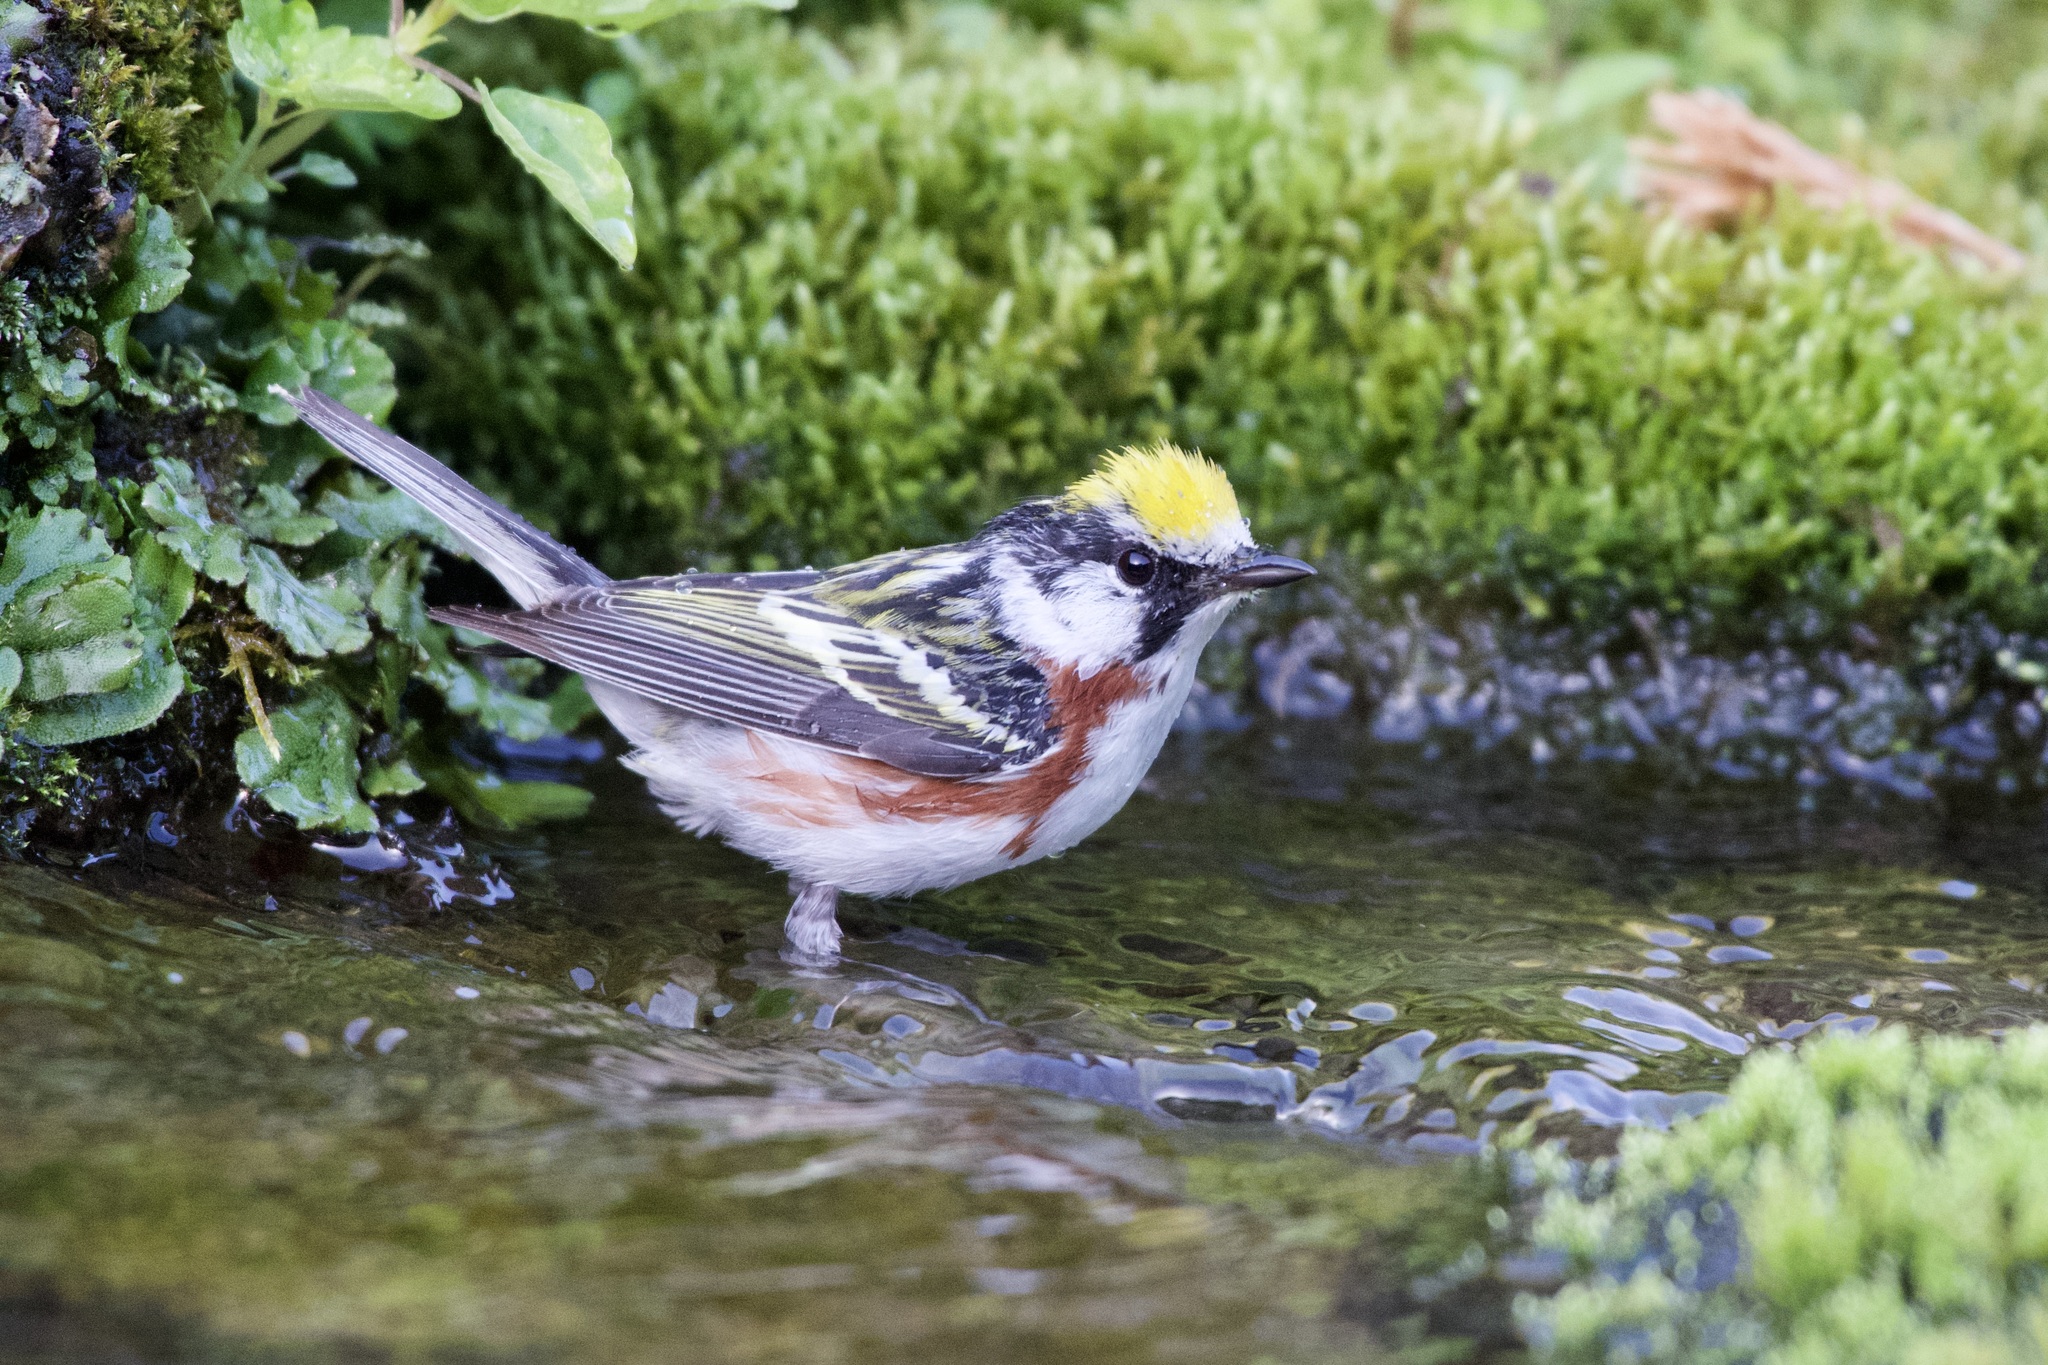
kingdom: Animalia
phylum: Chordata
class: Aves
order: Passeriformes
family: Parulidae
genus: Setophaga
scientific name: Setophaga pensylvanica
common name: Chestnut-sided warbler
